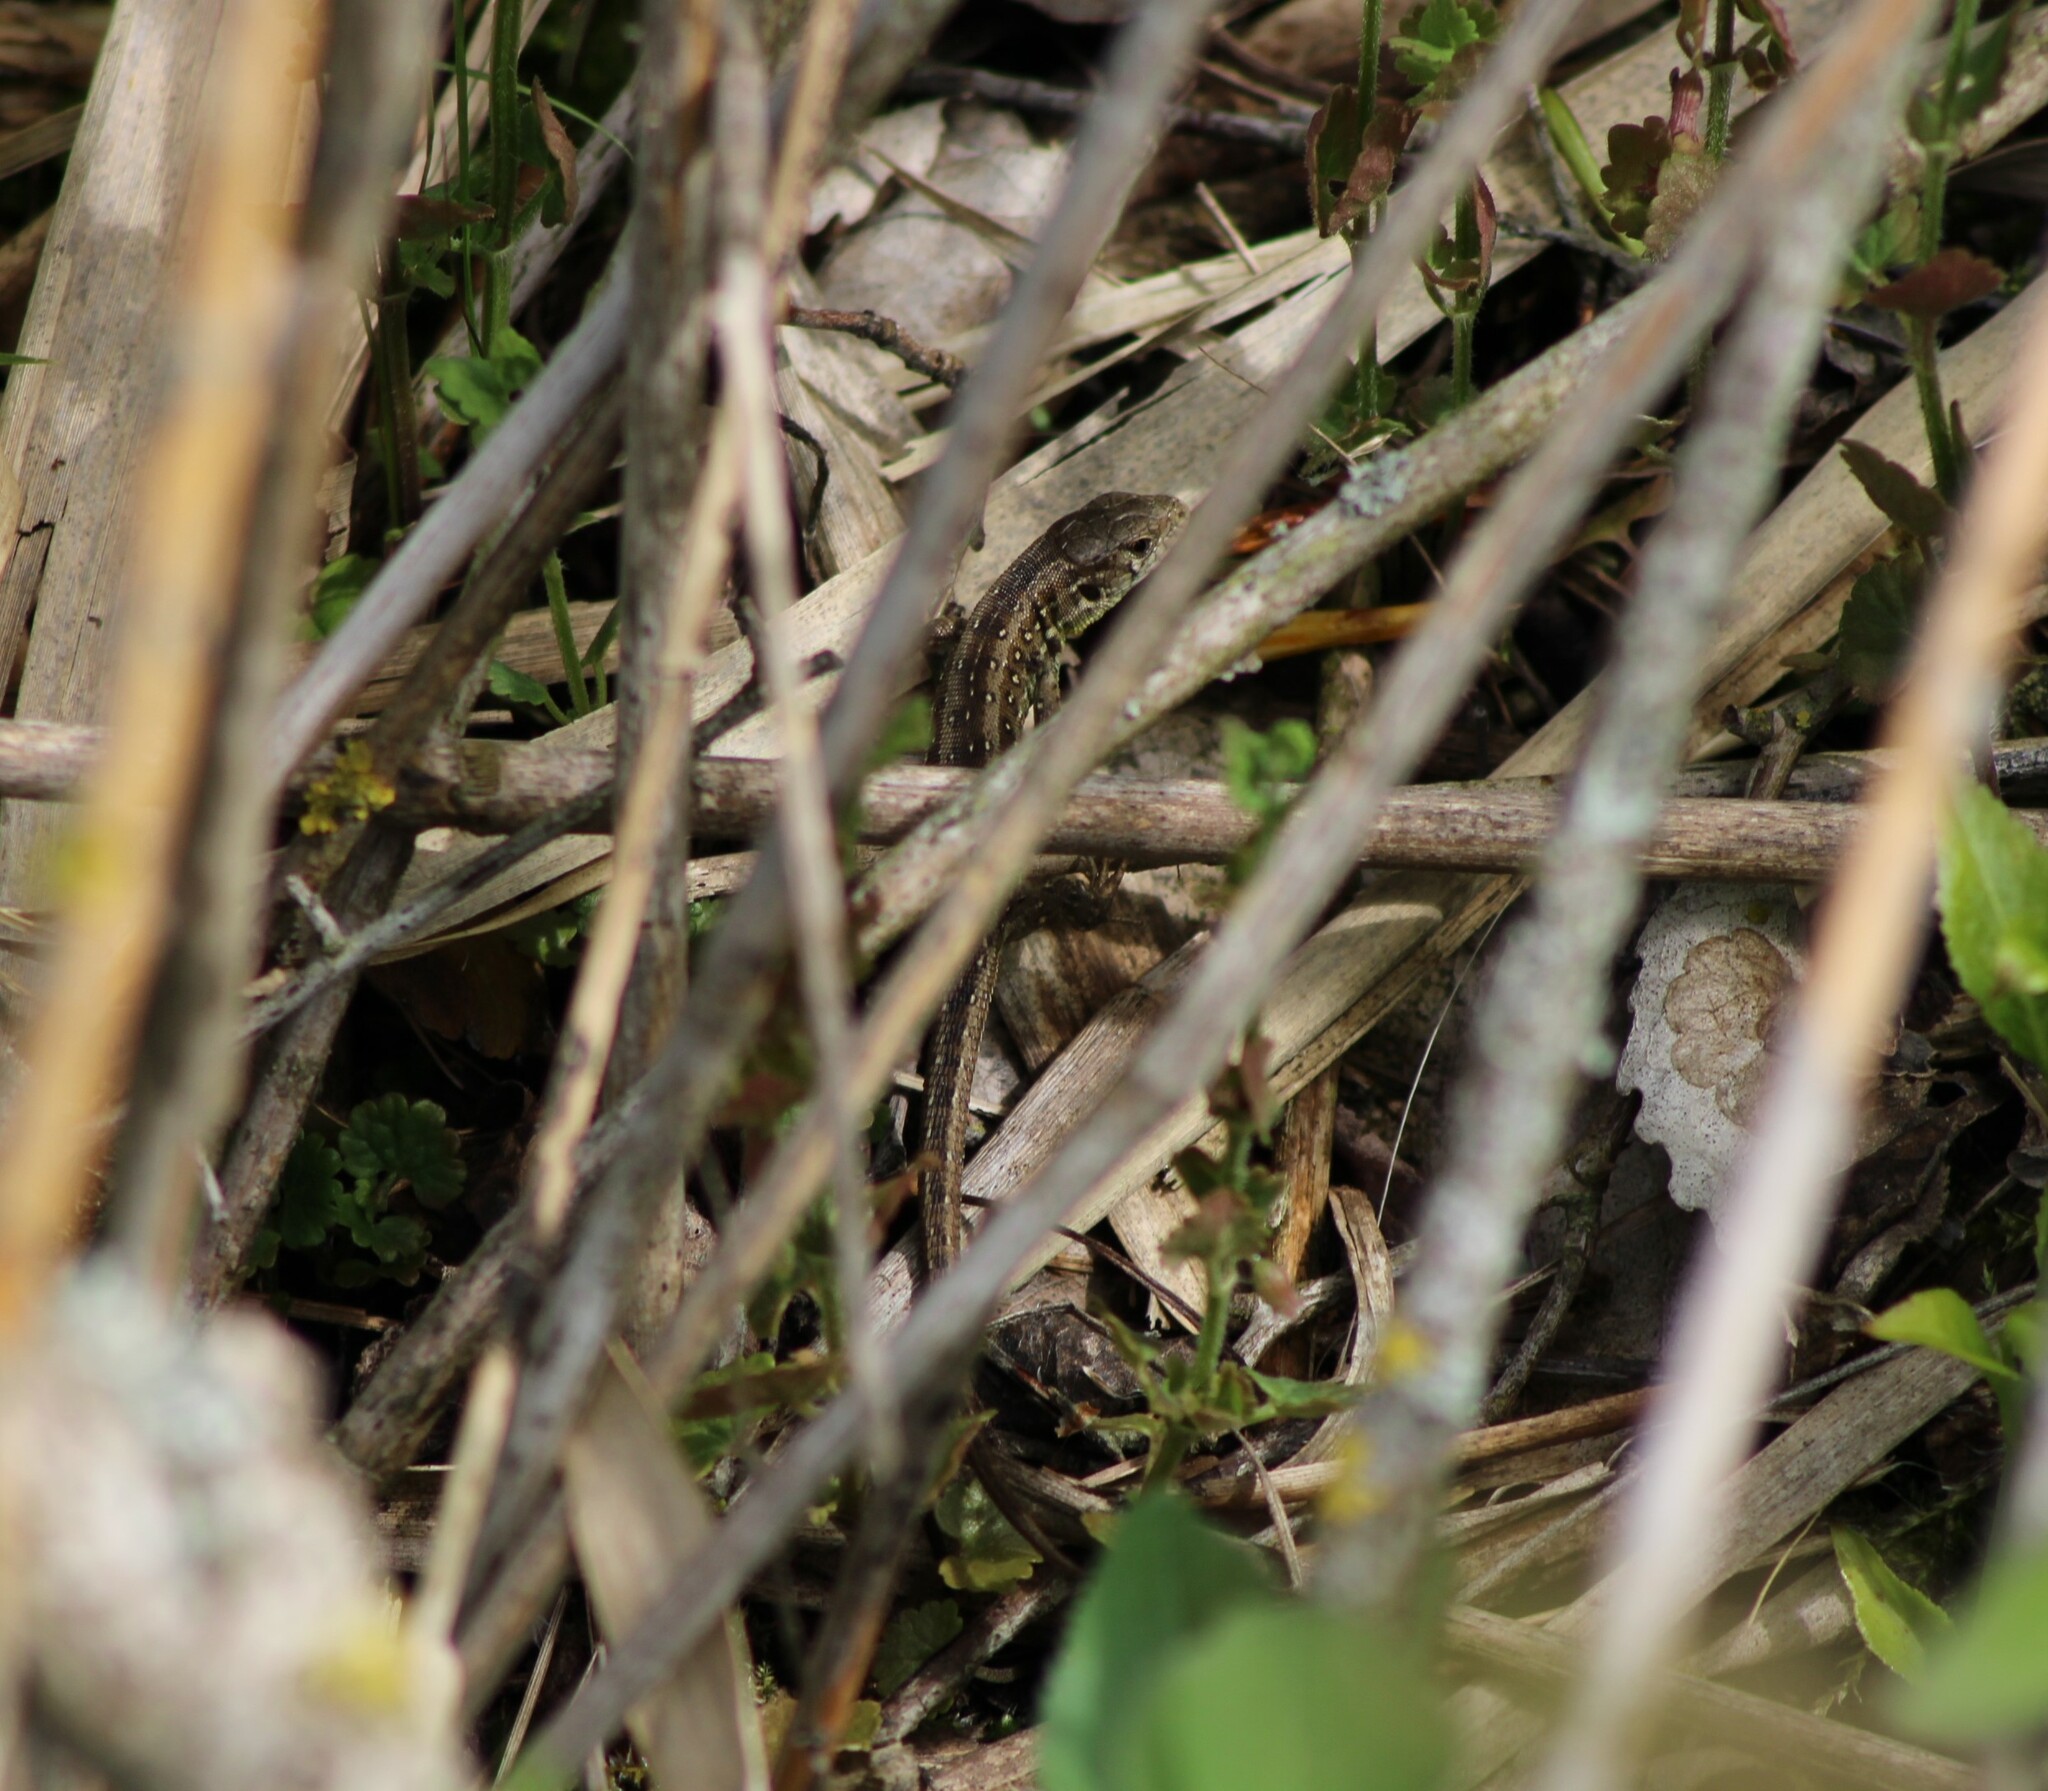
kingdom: Animalia
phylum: Chordata
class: Squamata
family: Lacertidae
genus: Lacerta
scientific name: Lacerta agilis
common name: Sand lizard
